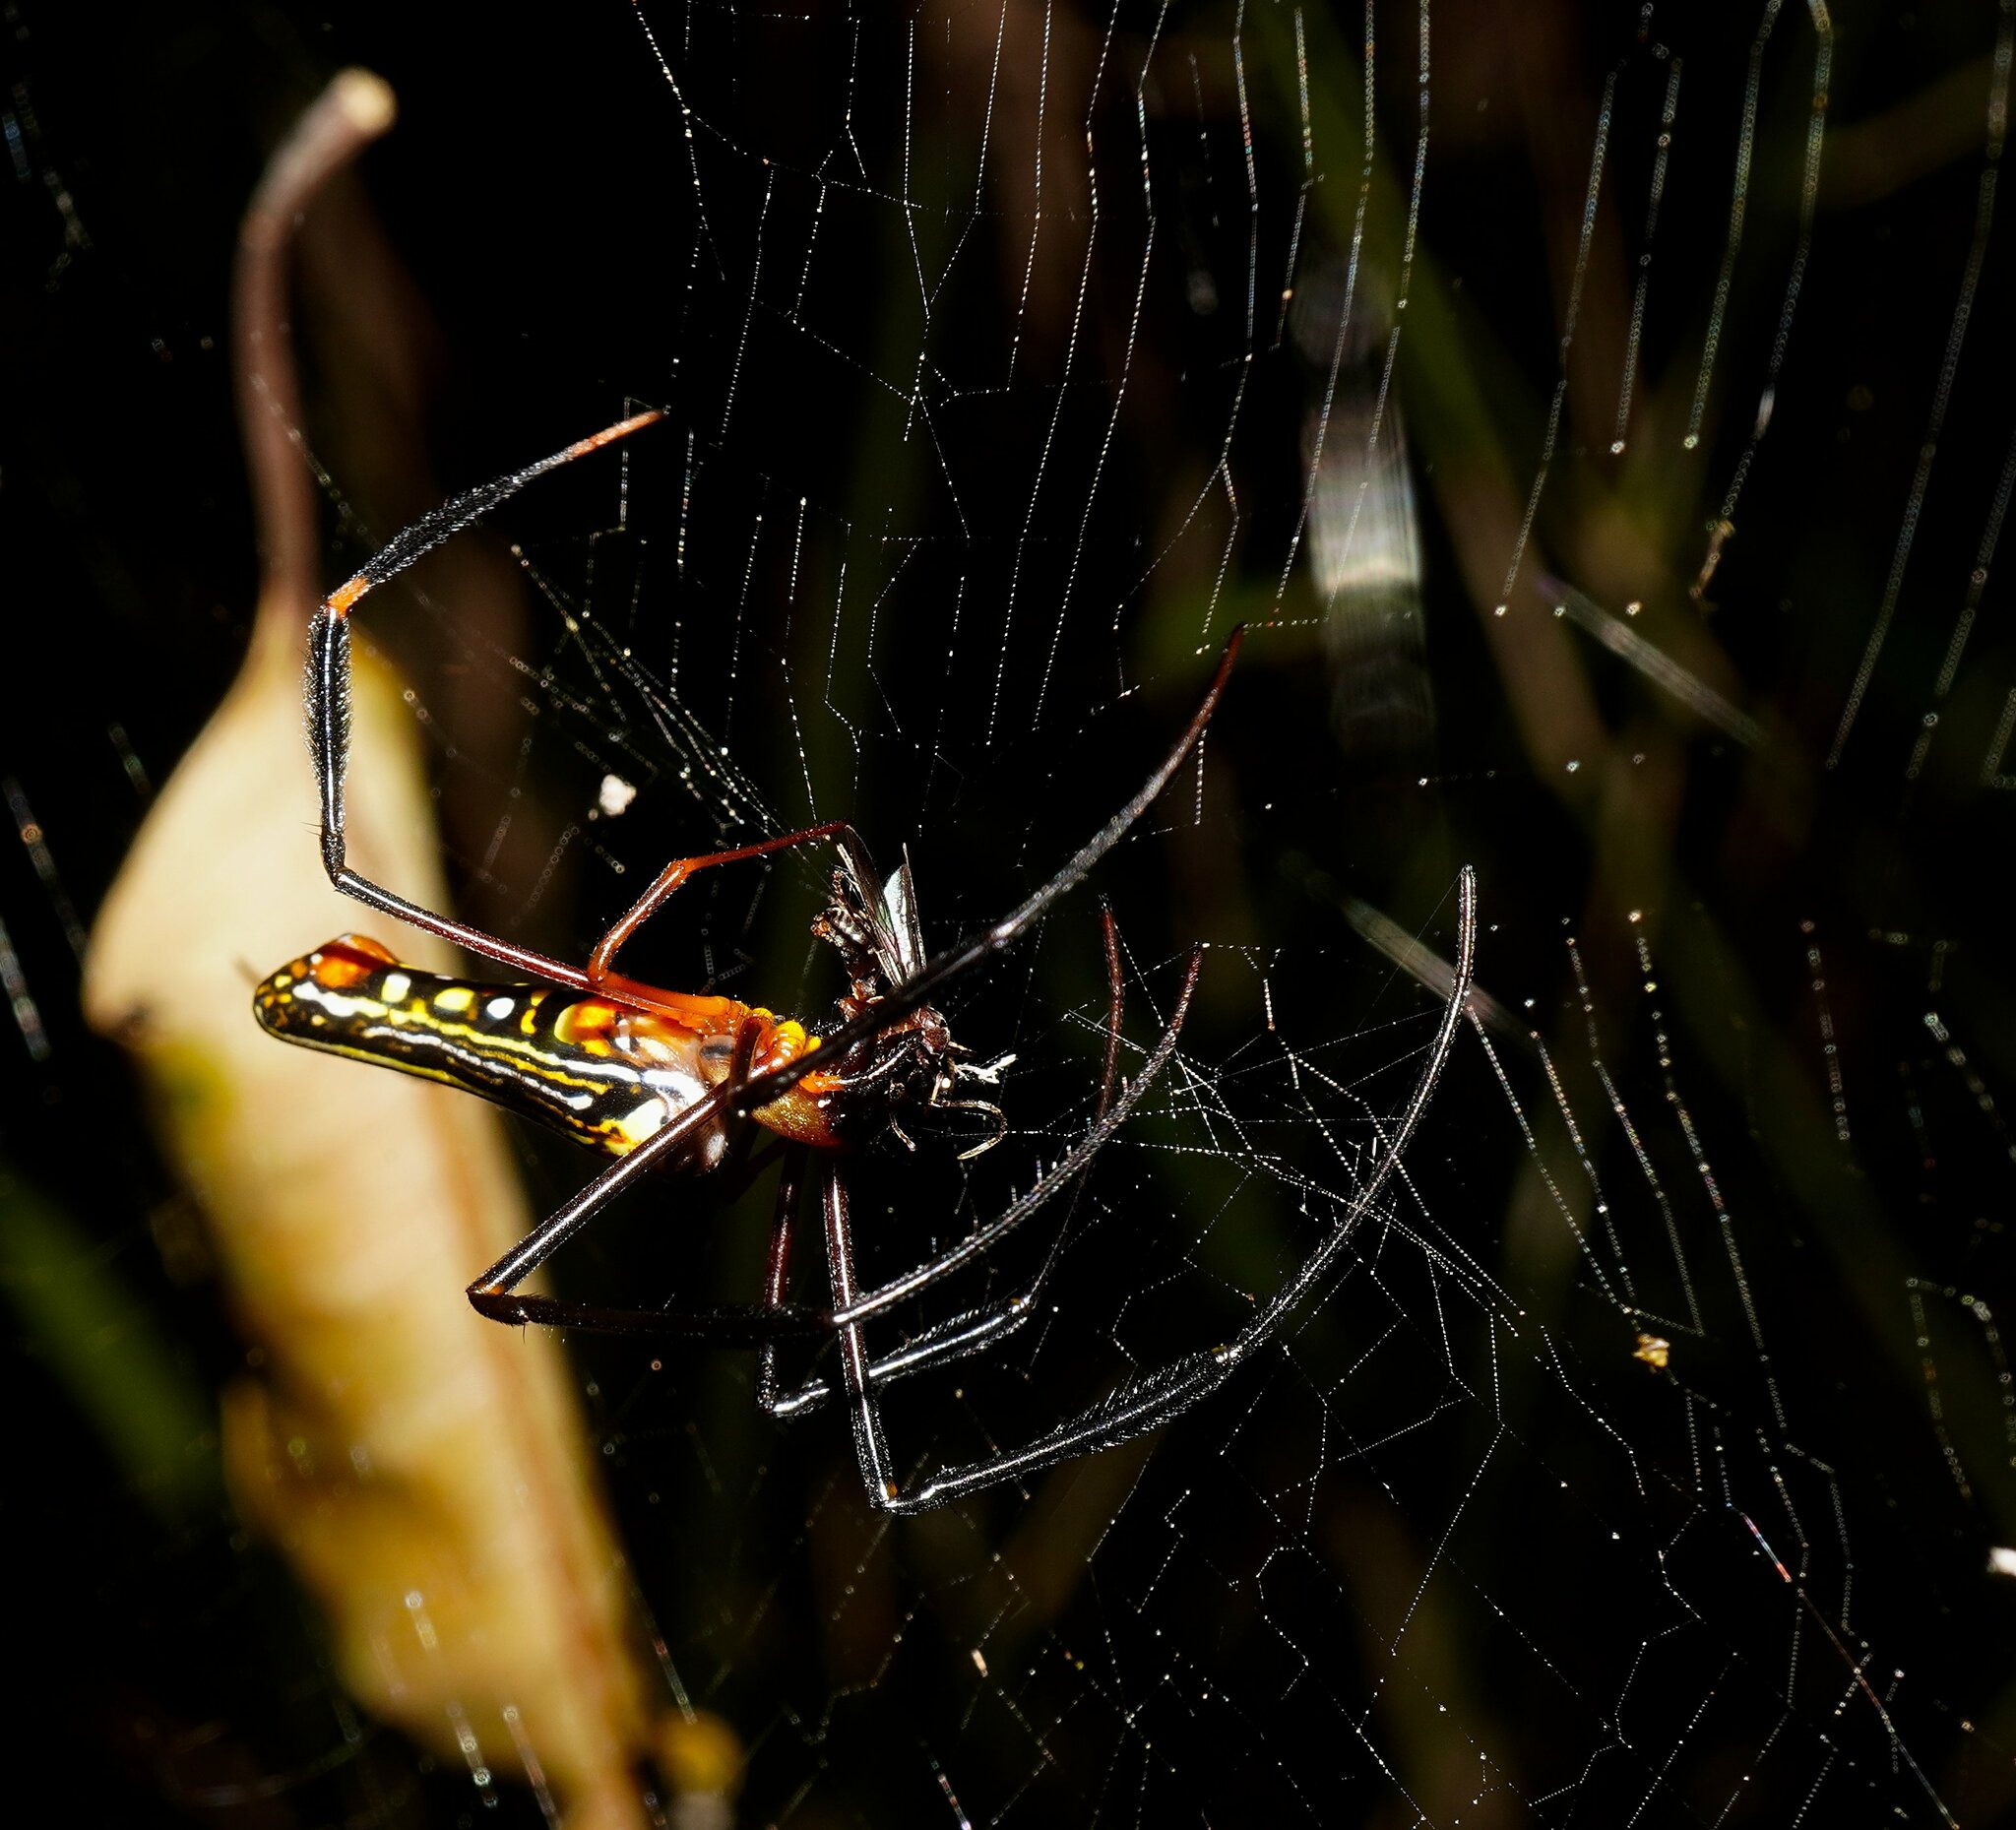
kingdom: Animalia
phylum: Arthropoda
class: Arachnida
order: Araneae
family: Araneidae
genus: Nephila
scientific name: Nephila pilipes
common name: Giant golden orb weaver
